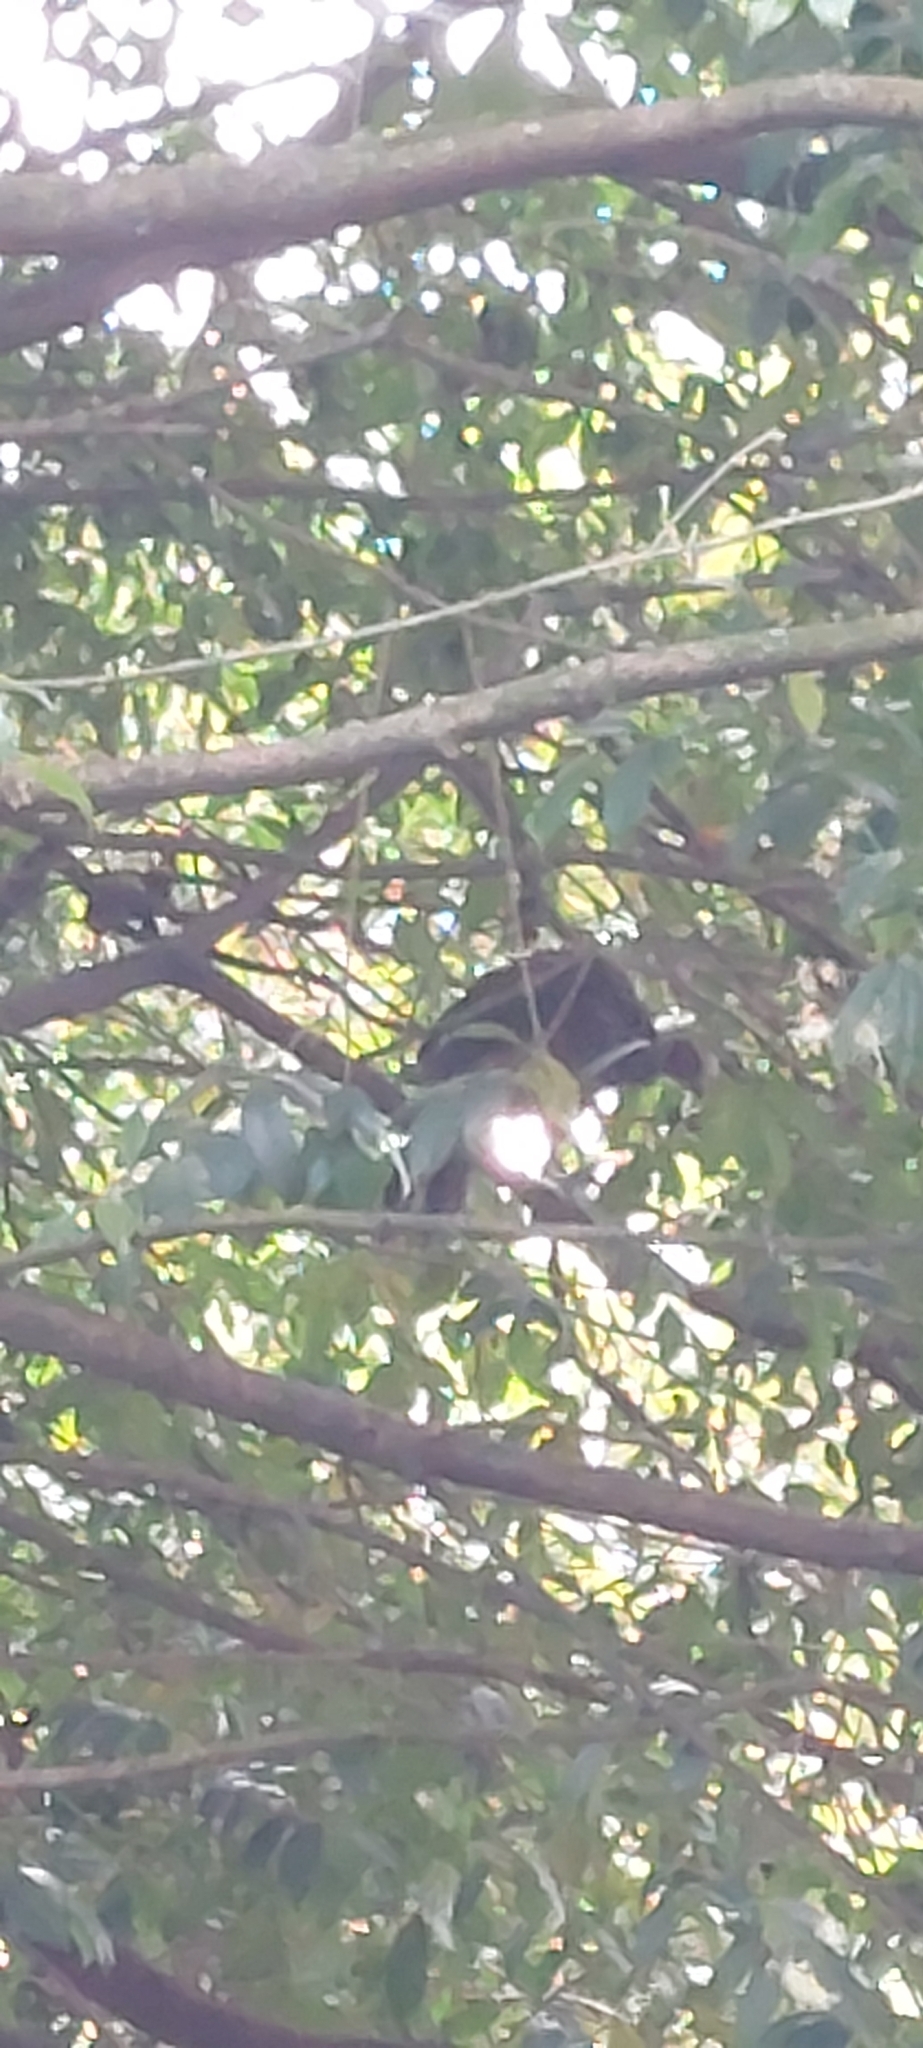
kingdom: Animalia
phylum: Chordata
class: Aves
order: Galliformes
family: Cracidae
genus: Penelope
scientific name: Penelope montagnii
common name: Andean guan
